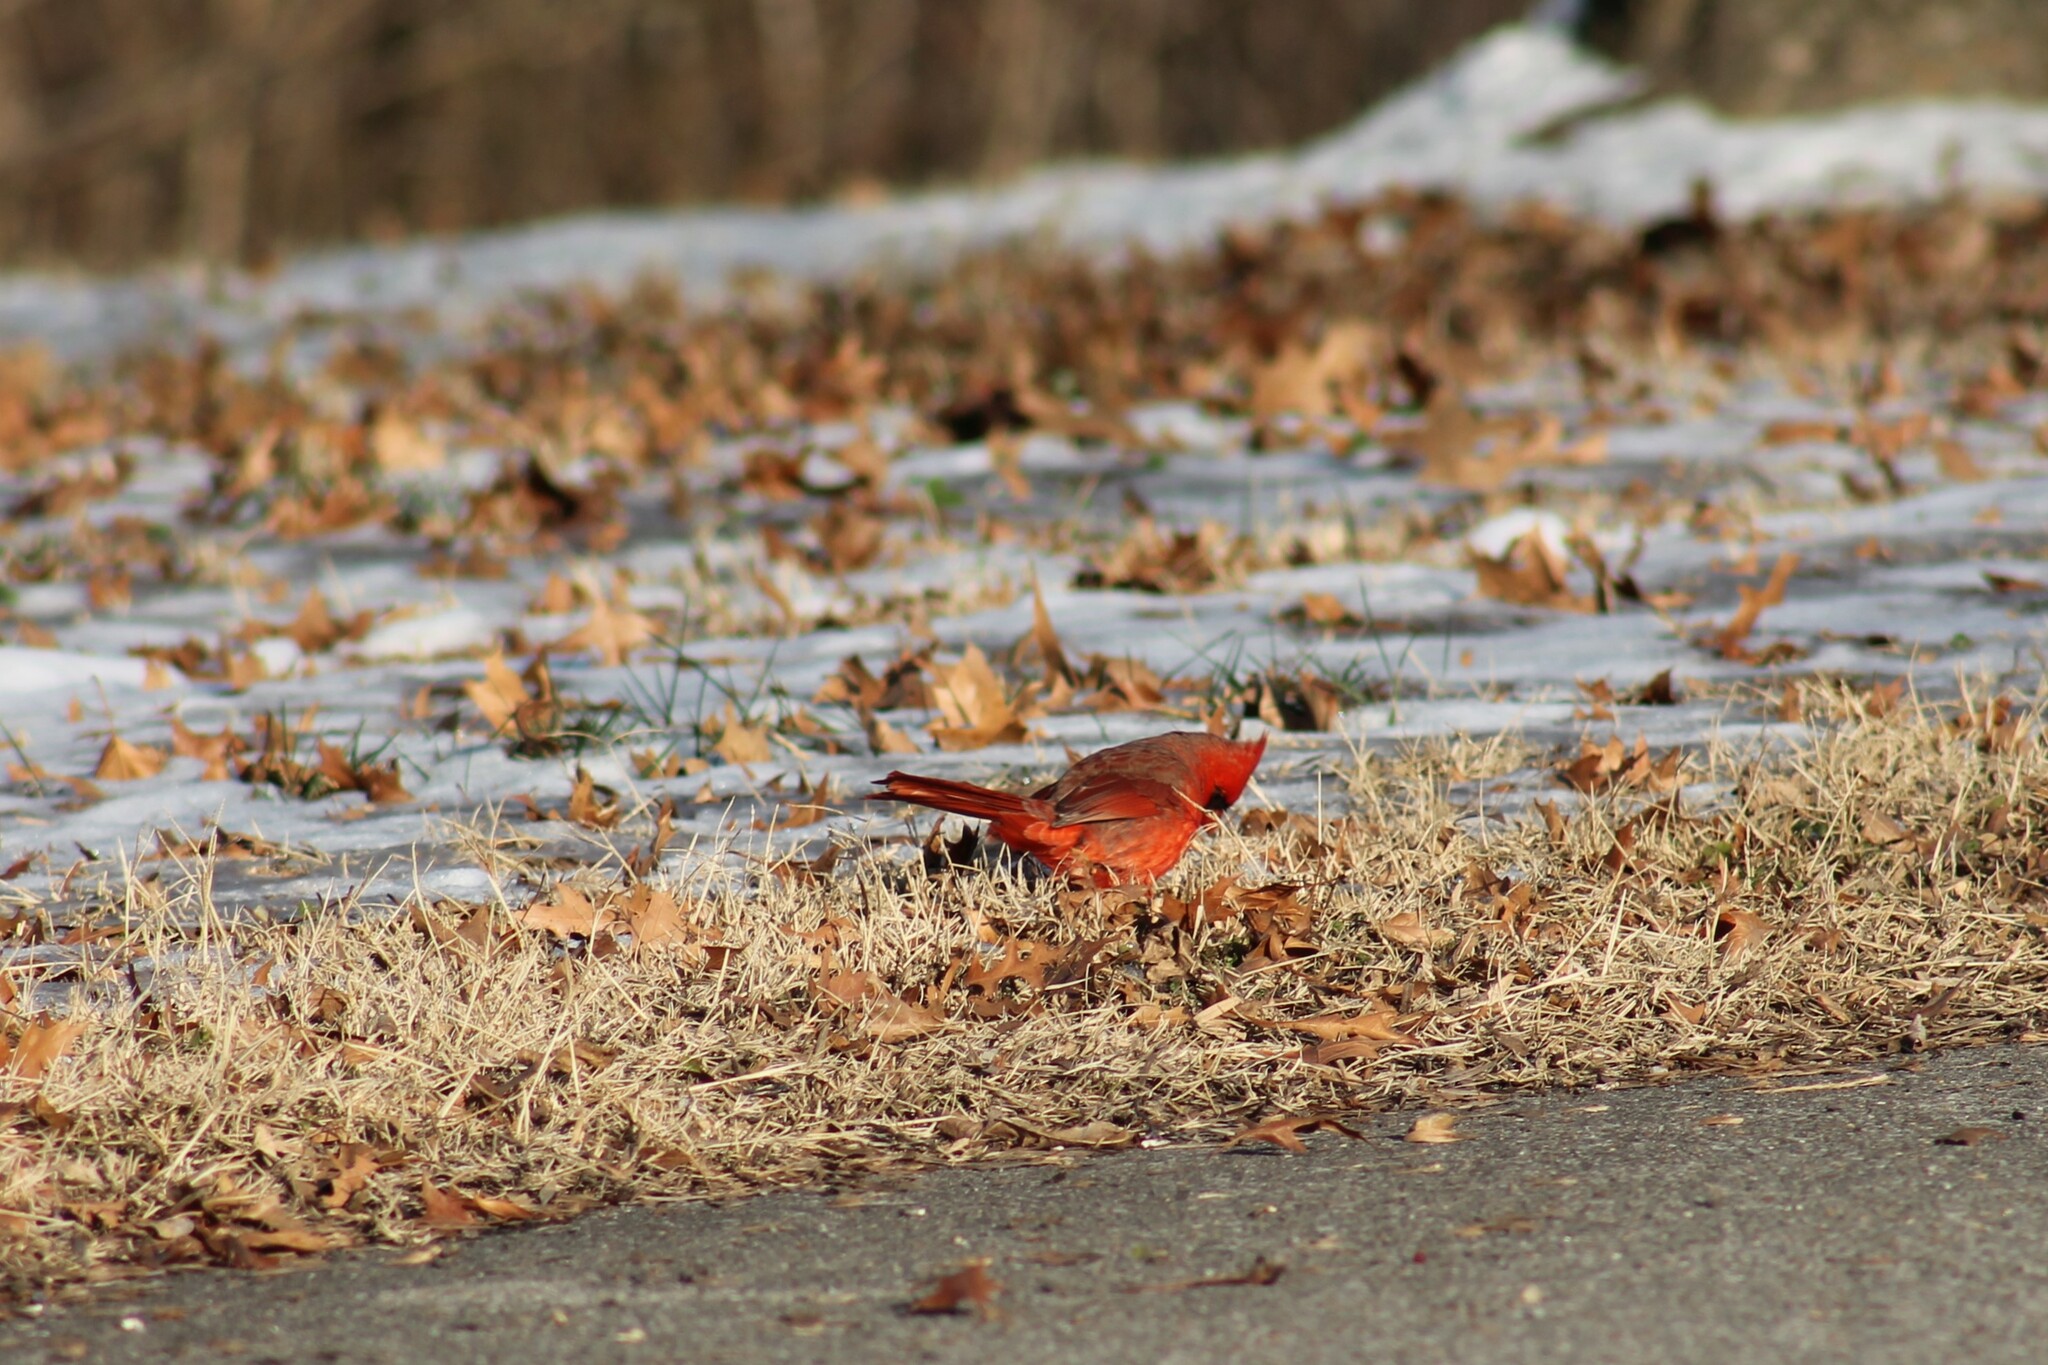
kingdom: Animalia
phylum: Chordata
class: Aves
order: Passeriformes
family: Cardinalidae
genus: Cardinalis
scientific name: Cardinalis cardinalis
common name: Northern cardinal
